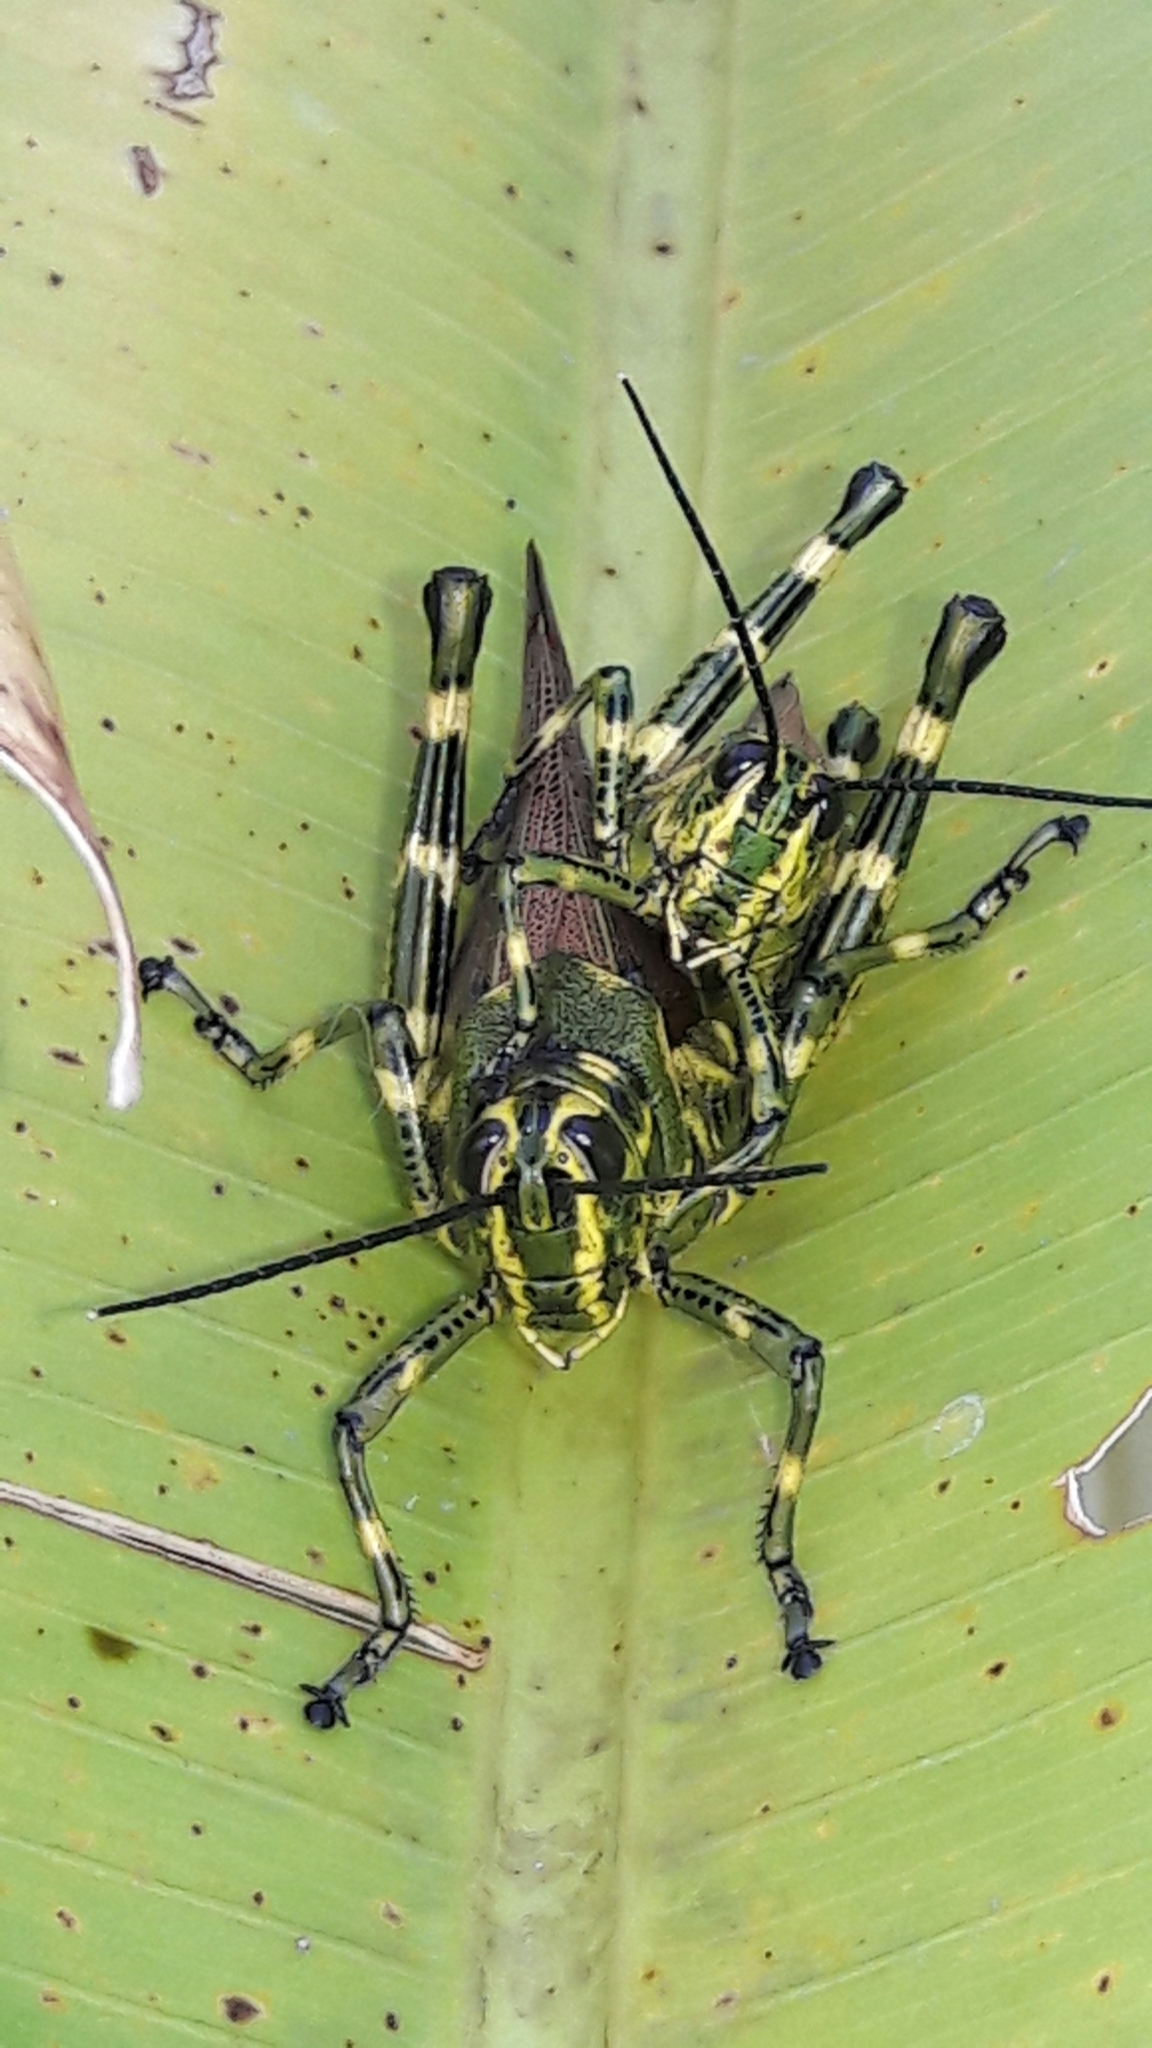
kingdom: Animalia
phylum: Arthropoda
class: Insecta
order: Orthoptera
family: Romaleidae
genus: Chromacris
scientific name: Chromacris speciosa
